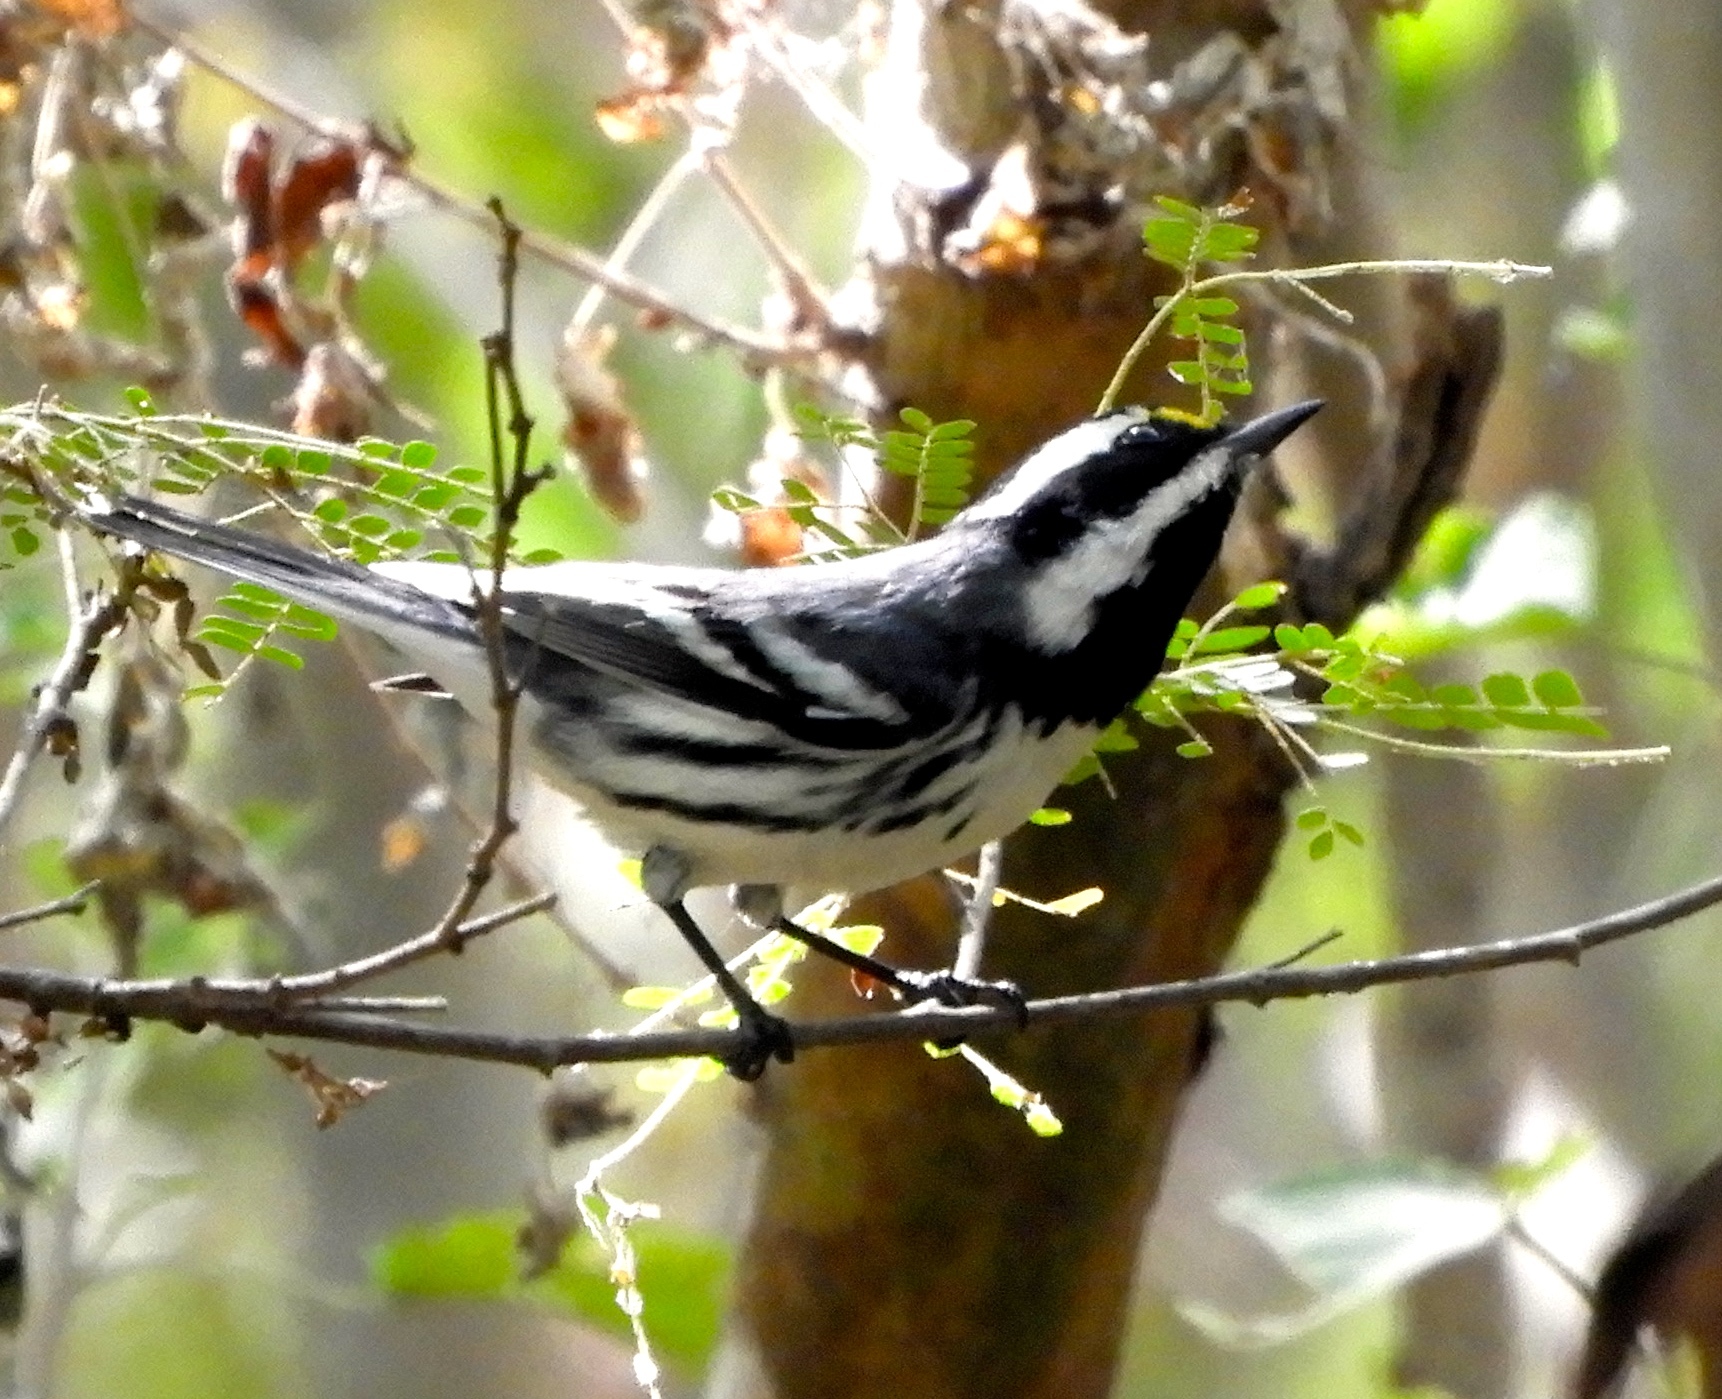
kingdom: Animalia
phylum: Chordata
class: Aves
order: Passeriformes
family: Parulidae
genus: Setophaga
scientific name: Setophaga nigrescens
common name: Black-throated gray warbler
